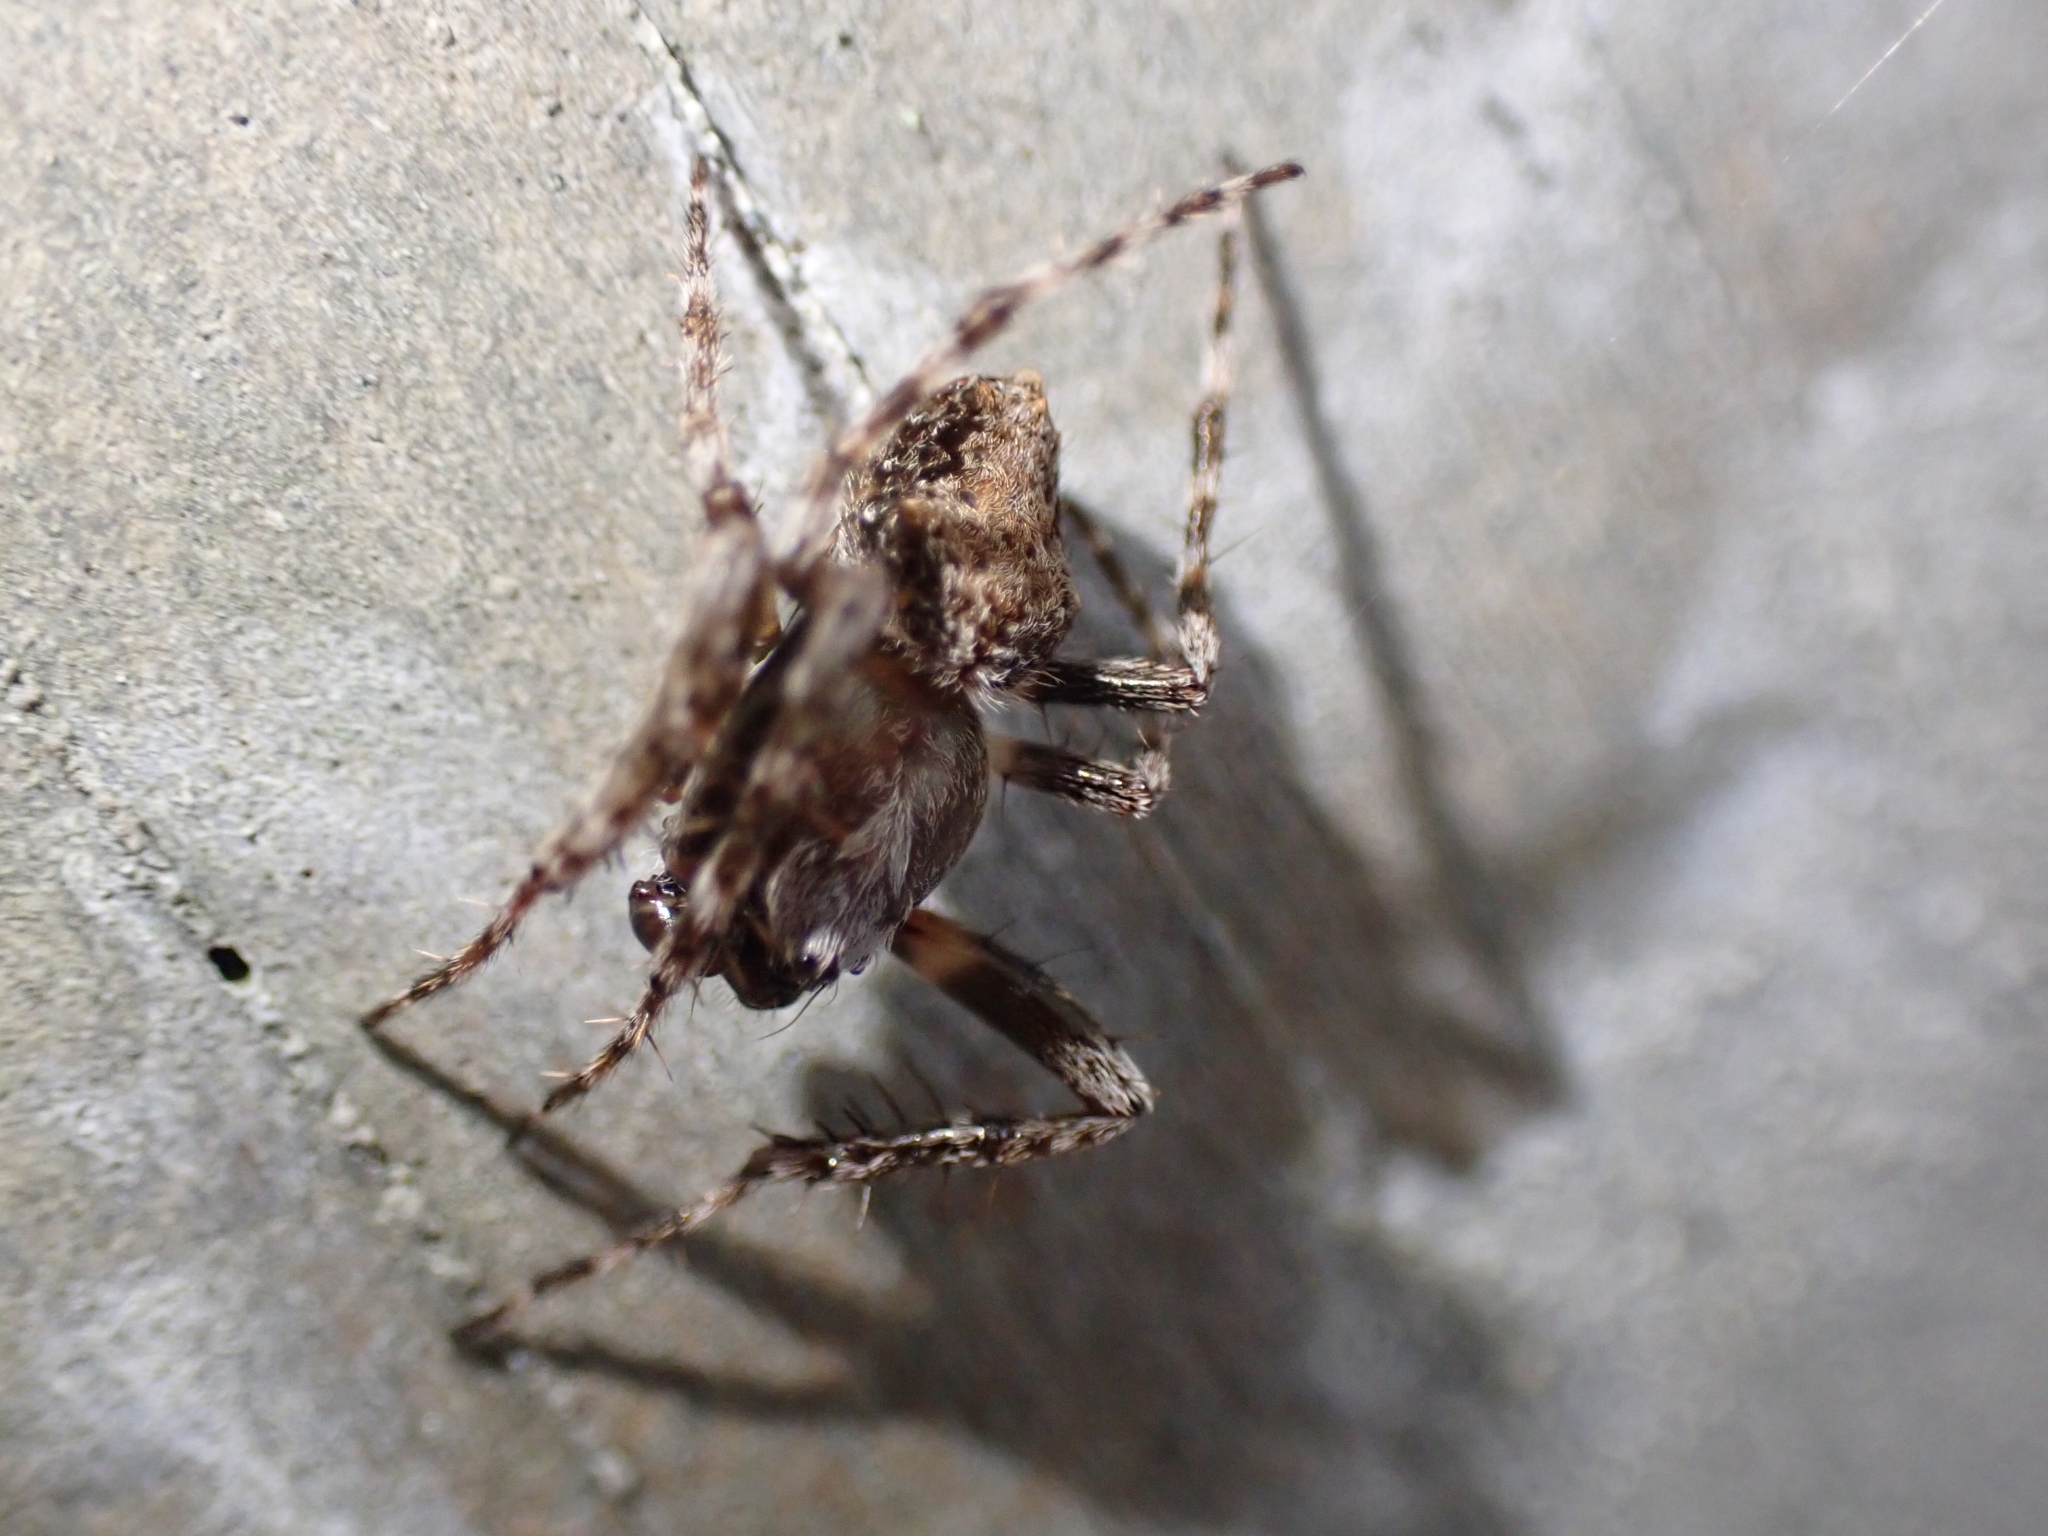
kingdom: Animalia
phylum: Arthropoda
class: Arachnida
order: Araneae
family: Araneidae
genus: Eriophora
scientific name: Eriophora pustulosa
